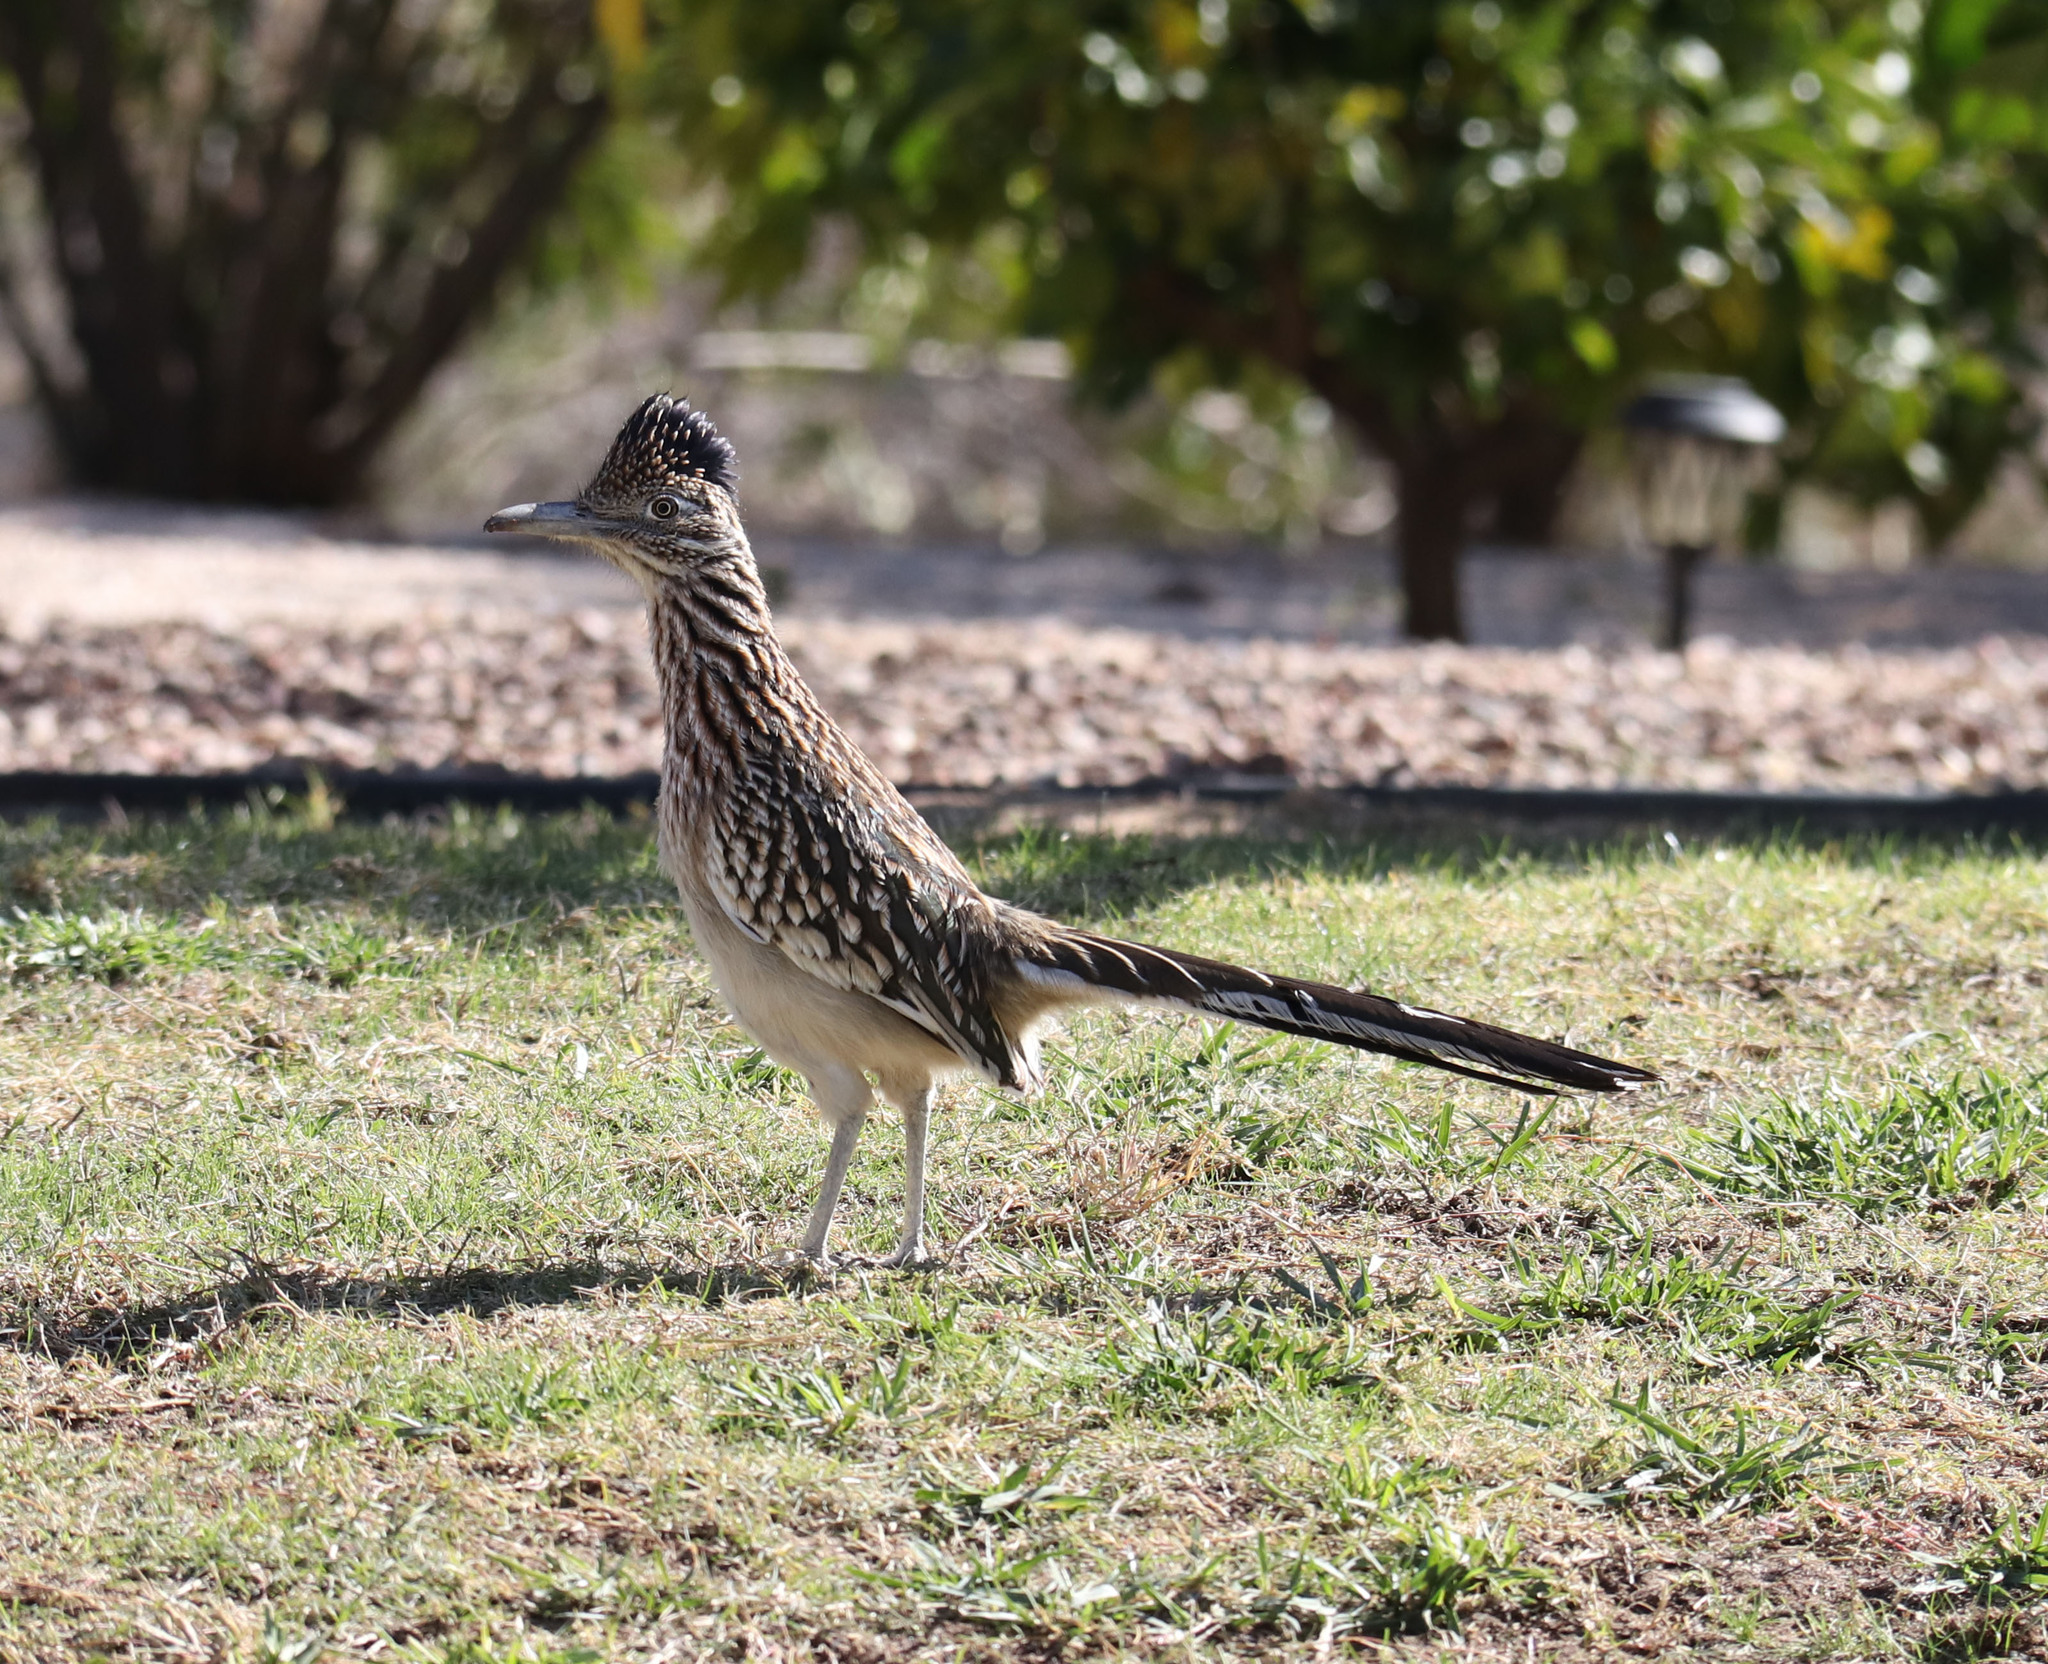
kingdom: Animalia
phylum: Chordata
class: Aves
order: Cuculiformes
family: Cuculidae
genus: Geococcyx
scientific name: Geococcyx californianus
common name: Greater roadrunner
